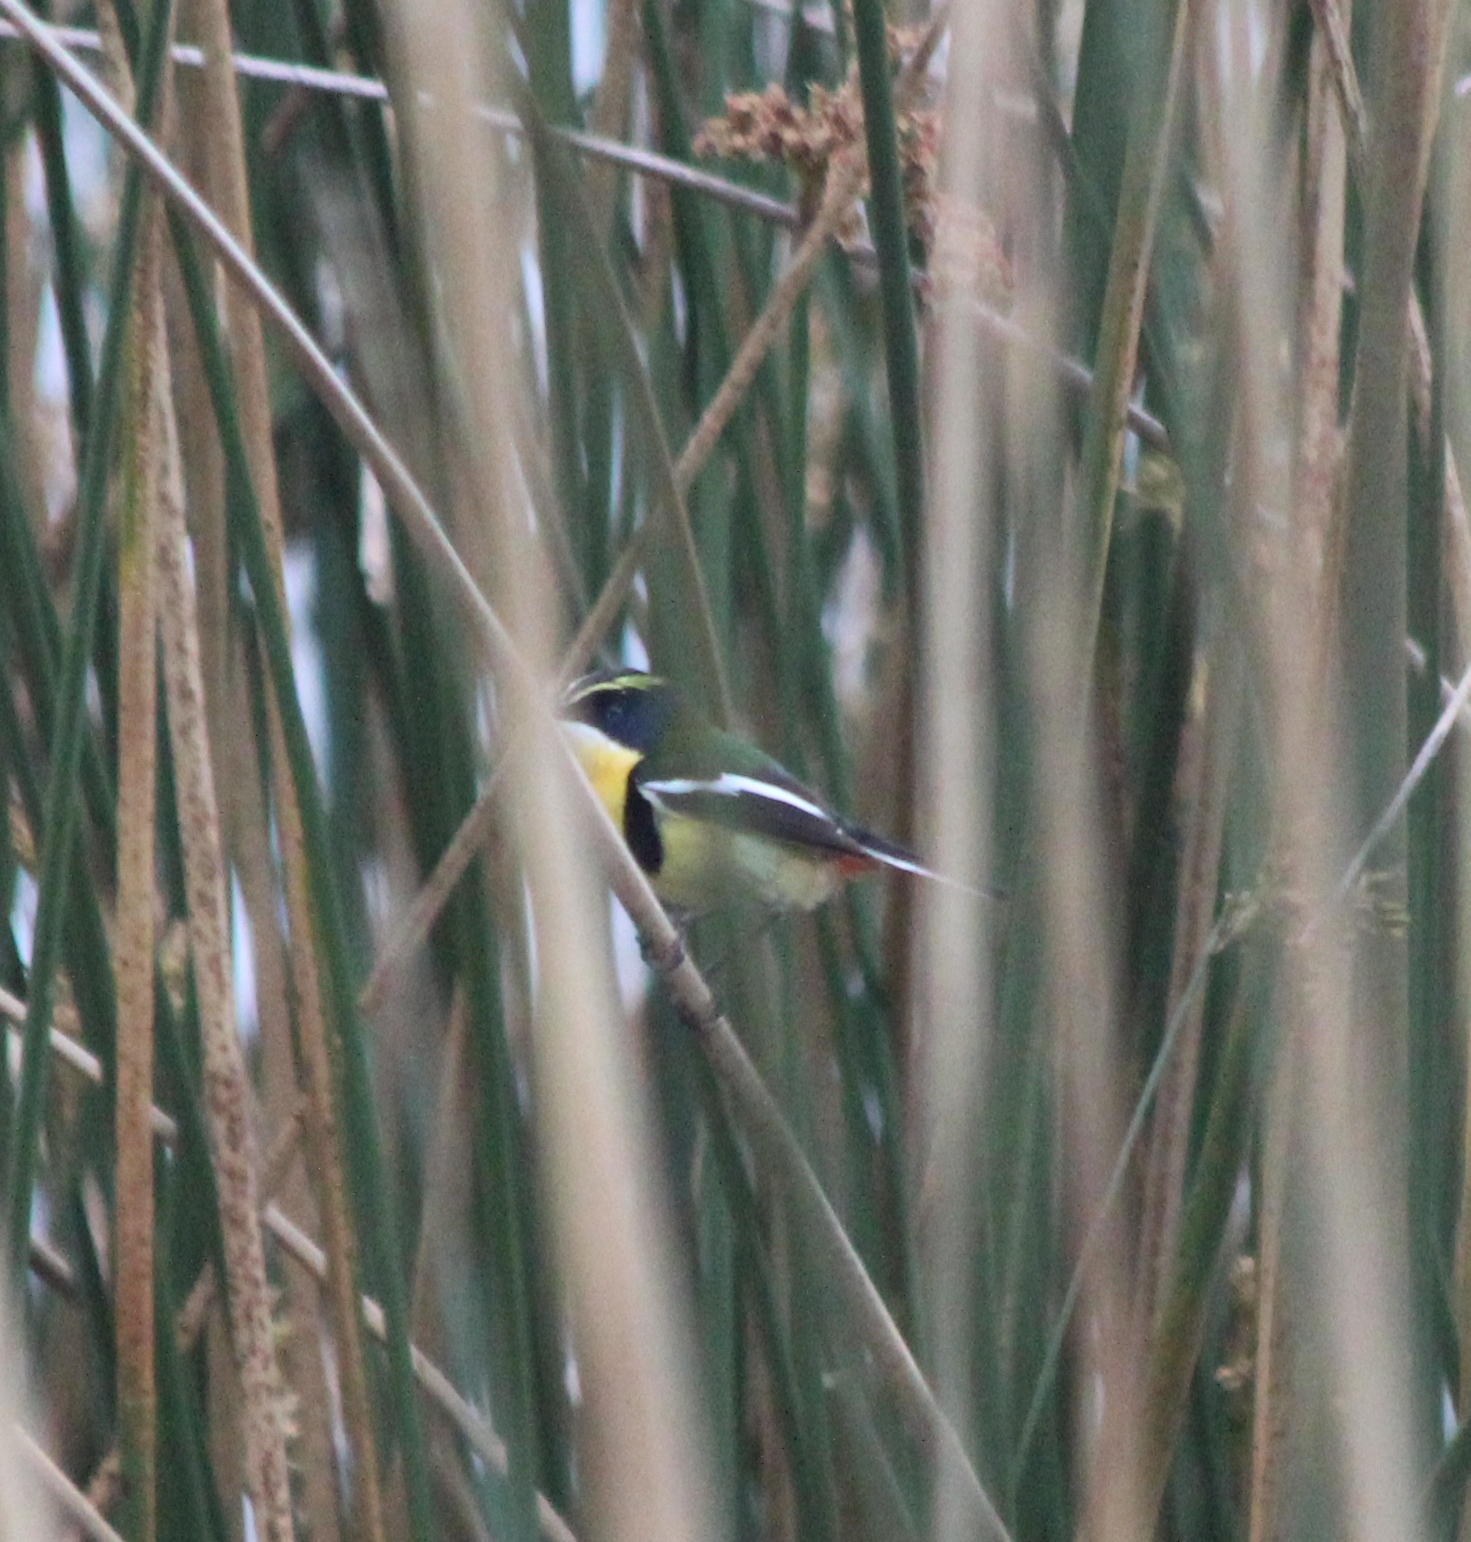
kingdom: Animalia
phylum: Chordata
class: Aves
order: Passeriformes
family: Tyrannidae
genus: Tachuris
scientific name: Tachuris rubrigastra
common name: Many-colored rush tyrant
